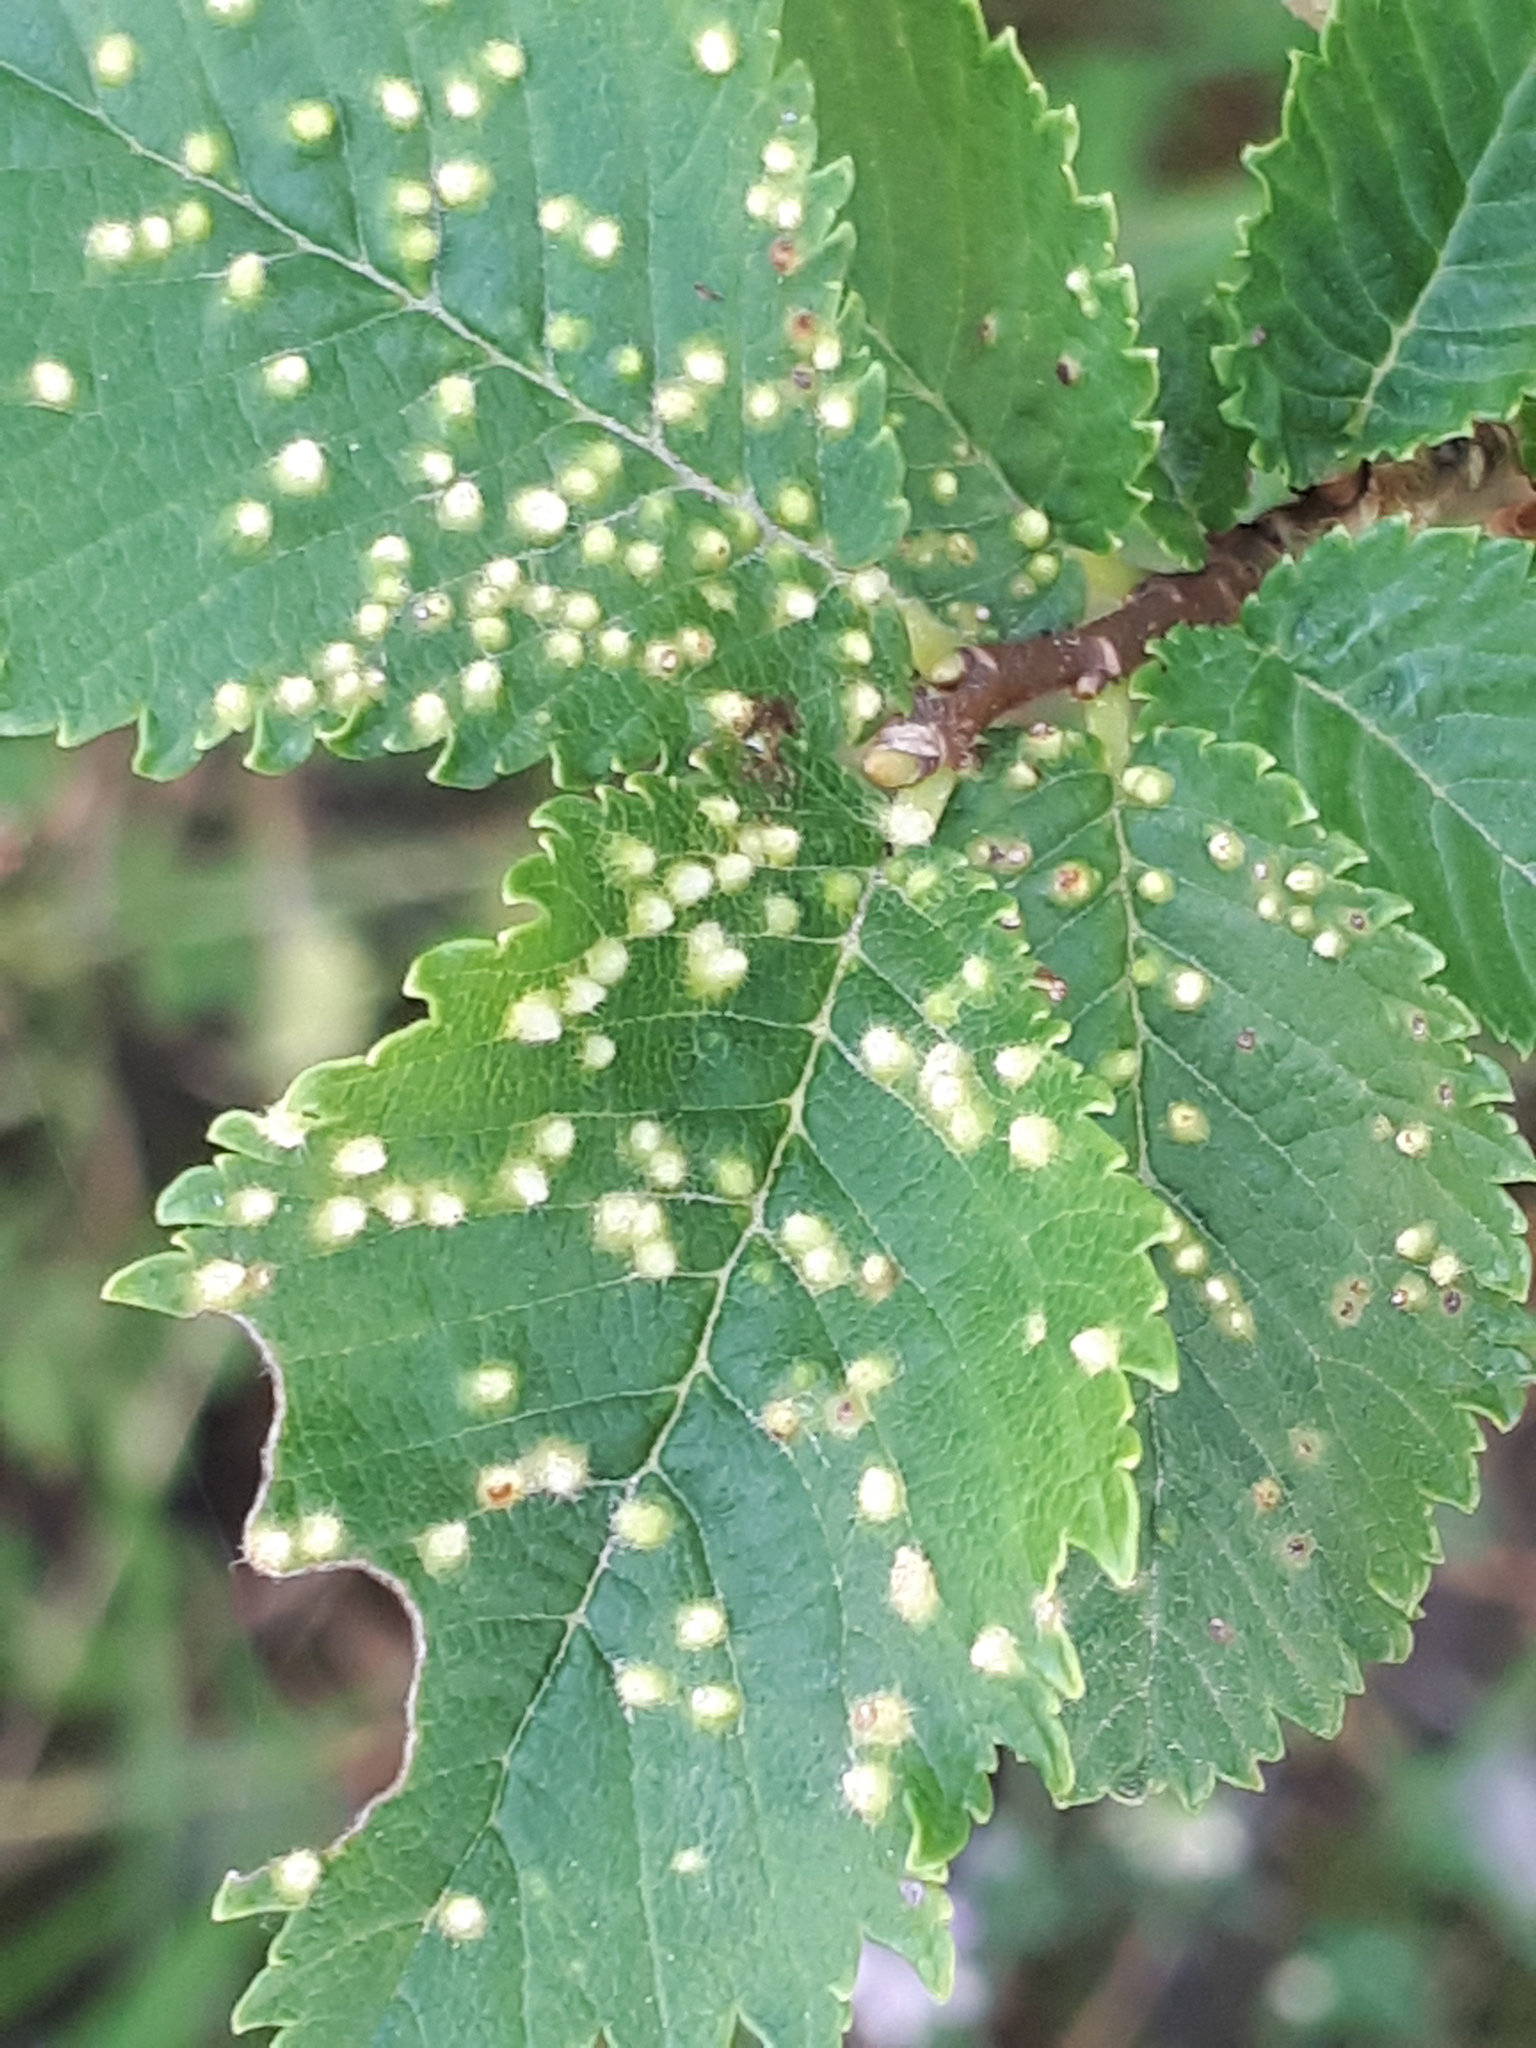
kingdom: Animalia
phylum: Arthropoda
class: Arachnida
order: Trombidiformes
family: Eriophyidae
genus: Aceria
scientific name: Aceria brevipunctata
